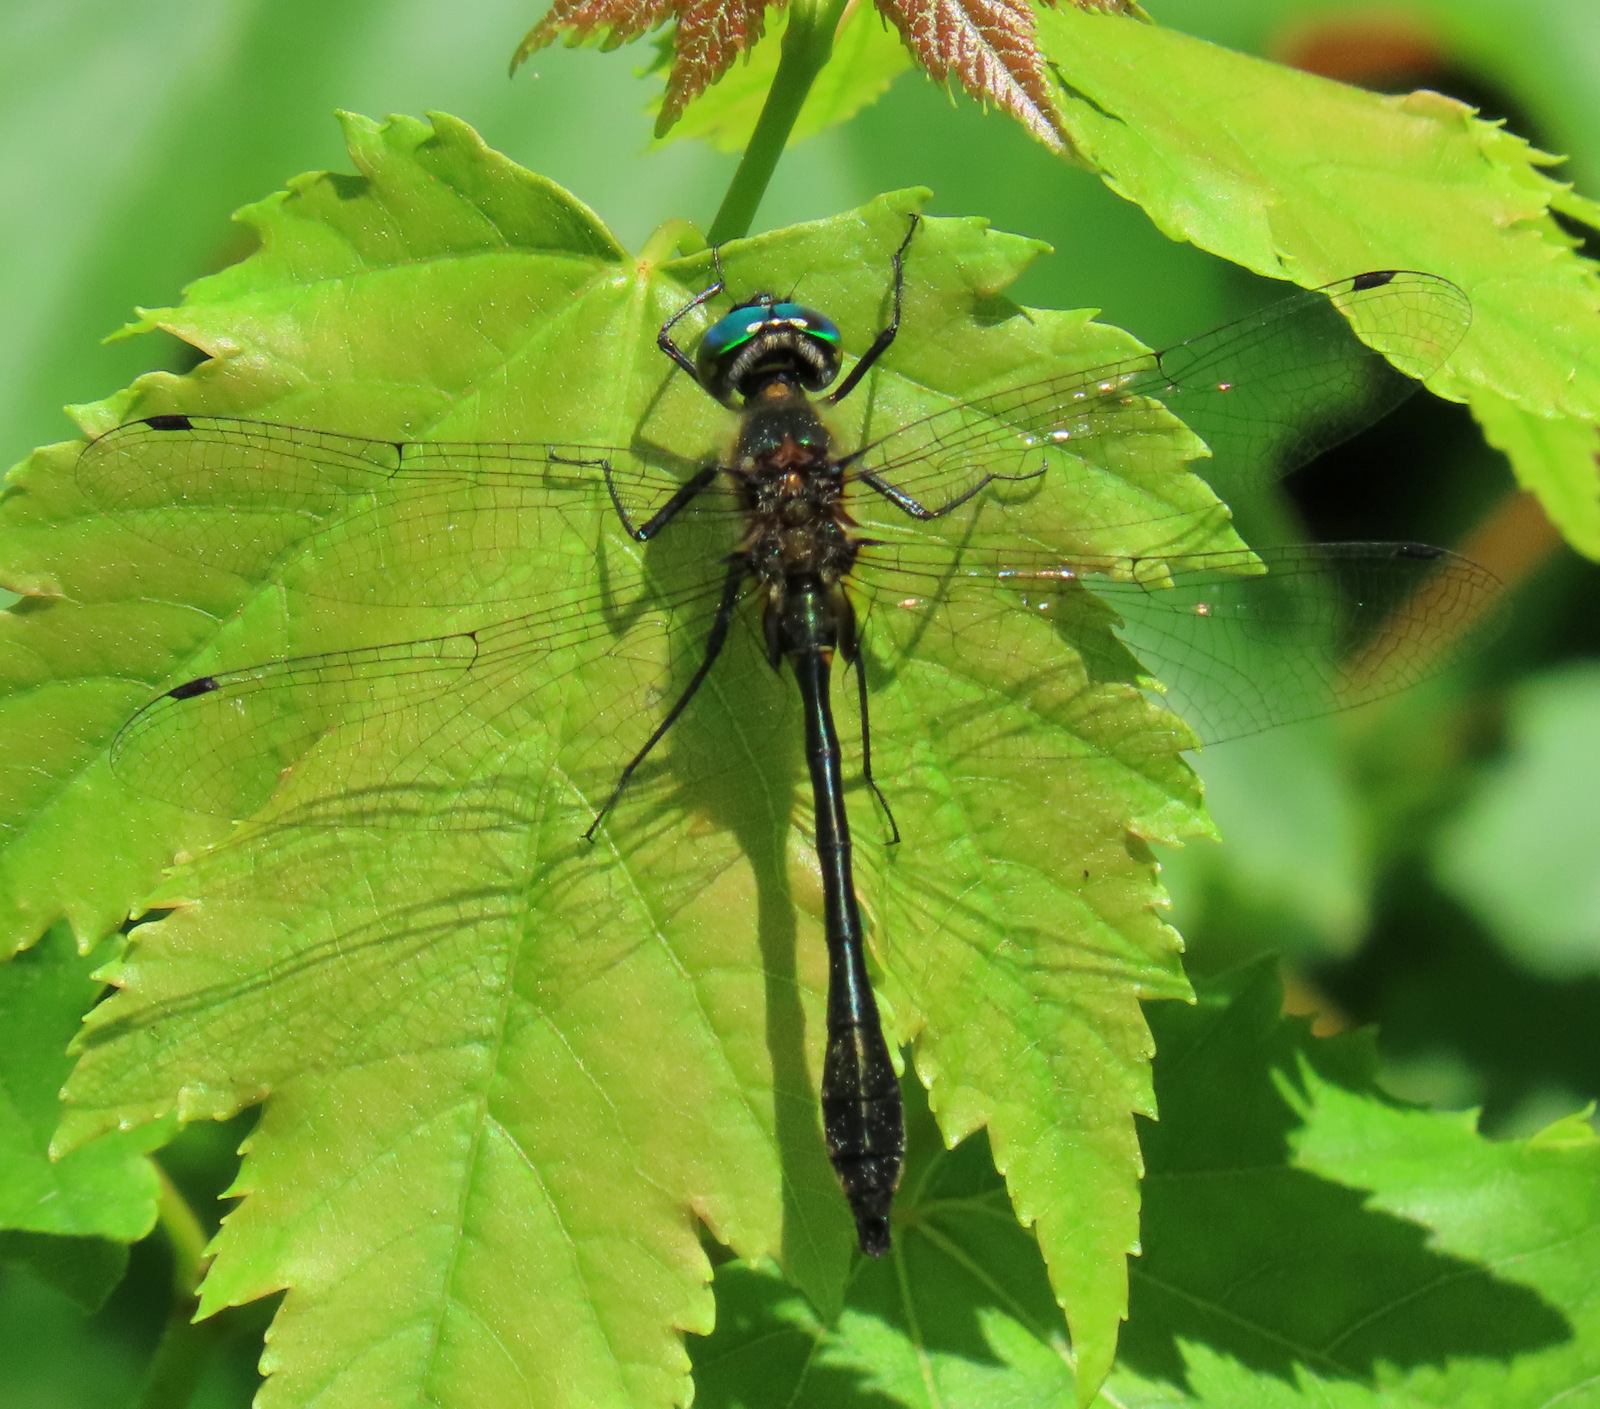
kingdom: Animalia
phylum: Arthropoda
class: Insecta
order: Odonata
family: Corduliidae
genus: Dorocordulia
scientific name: Dorocordulia libera
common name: Racket-tailed emerald
